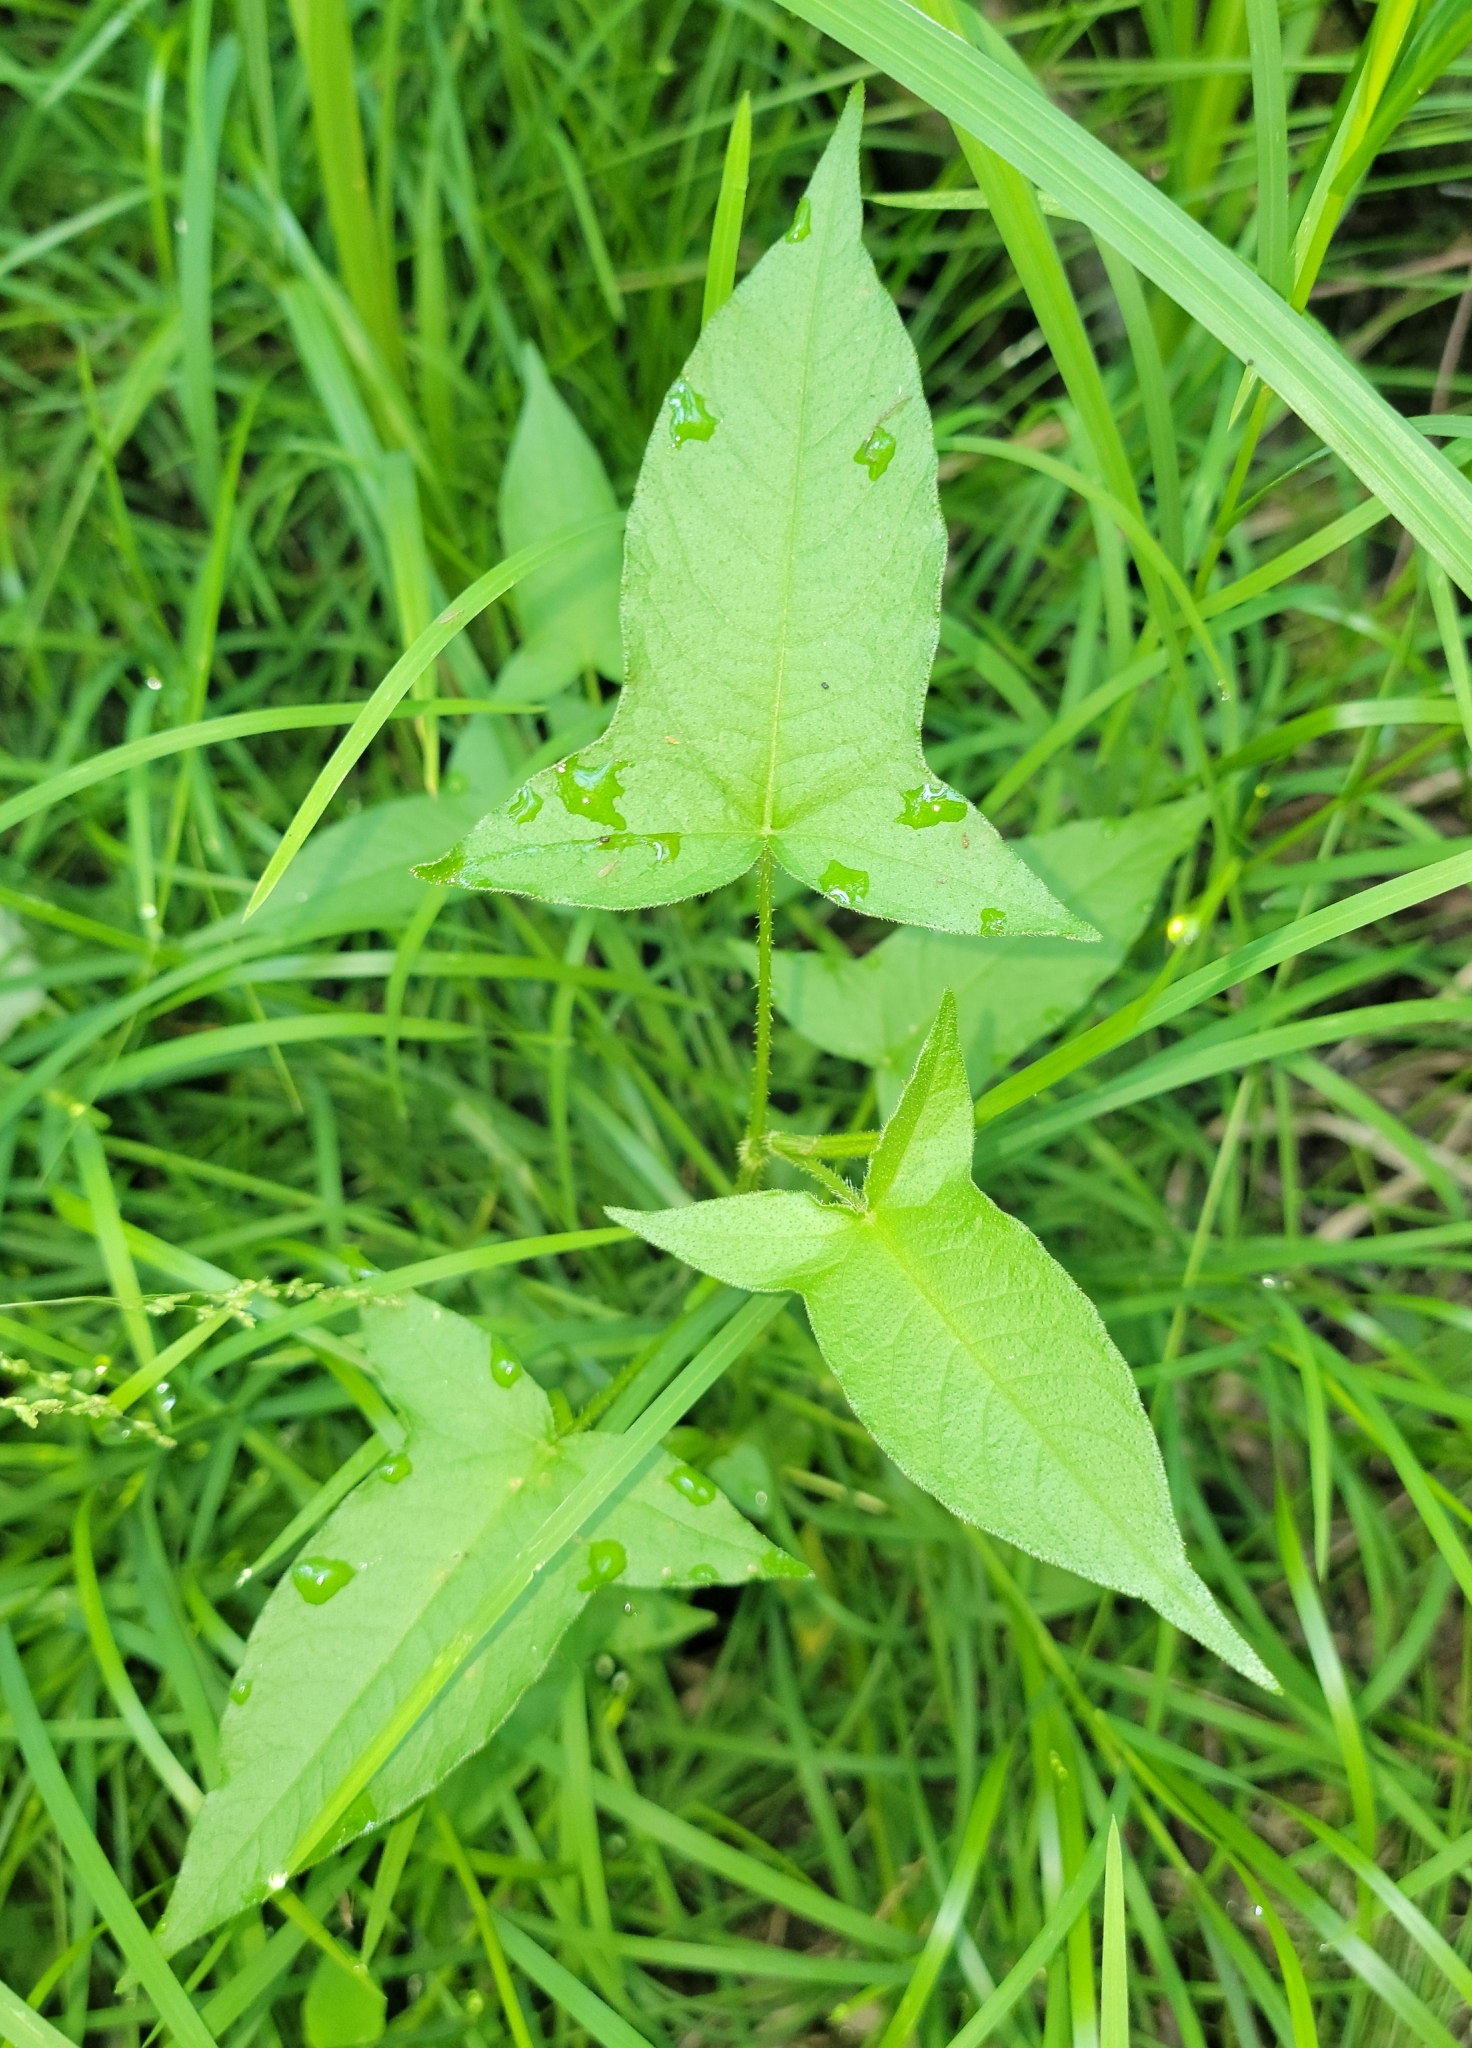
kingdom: Plantae
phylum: Tracheophyta
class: Magnoliopsida
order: Caryophyllales
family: Polygonaceae
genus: Persicaria
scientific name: Persicaria arifolia
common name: Halberd-leaved tear-thumb
